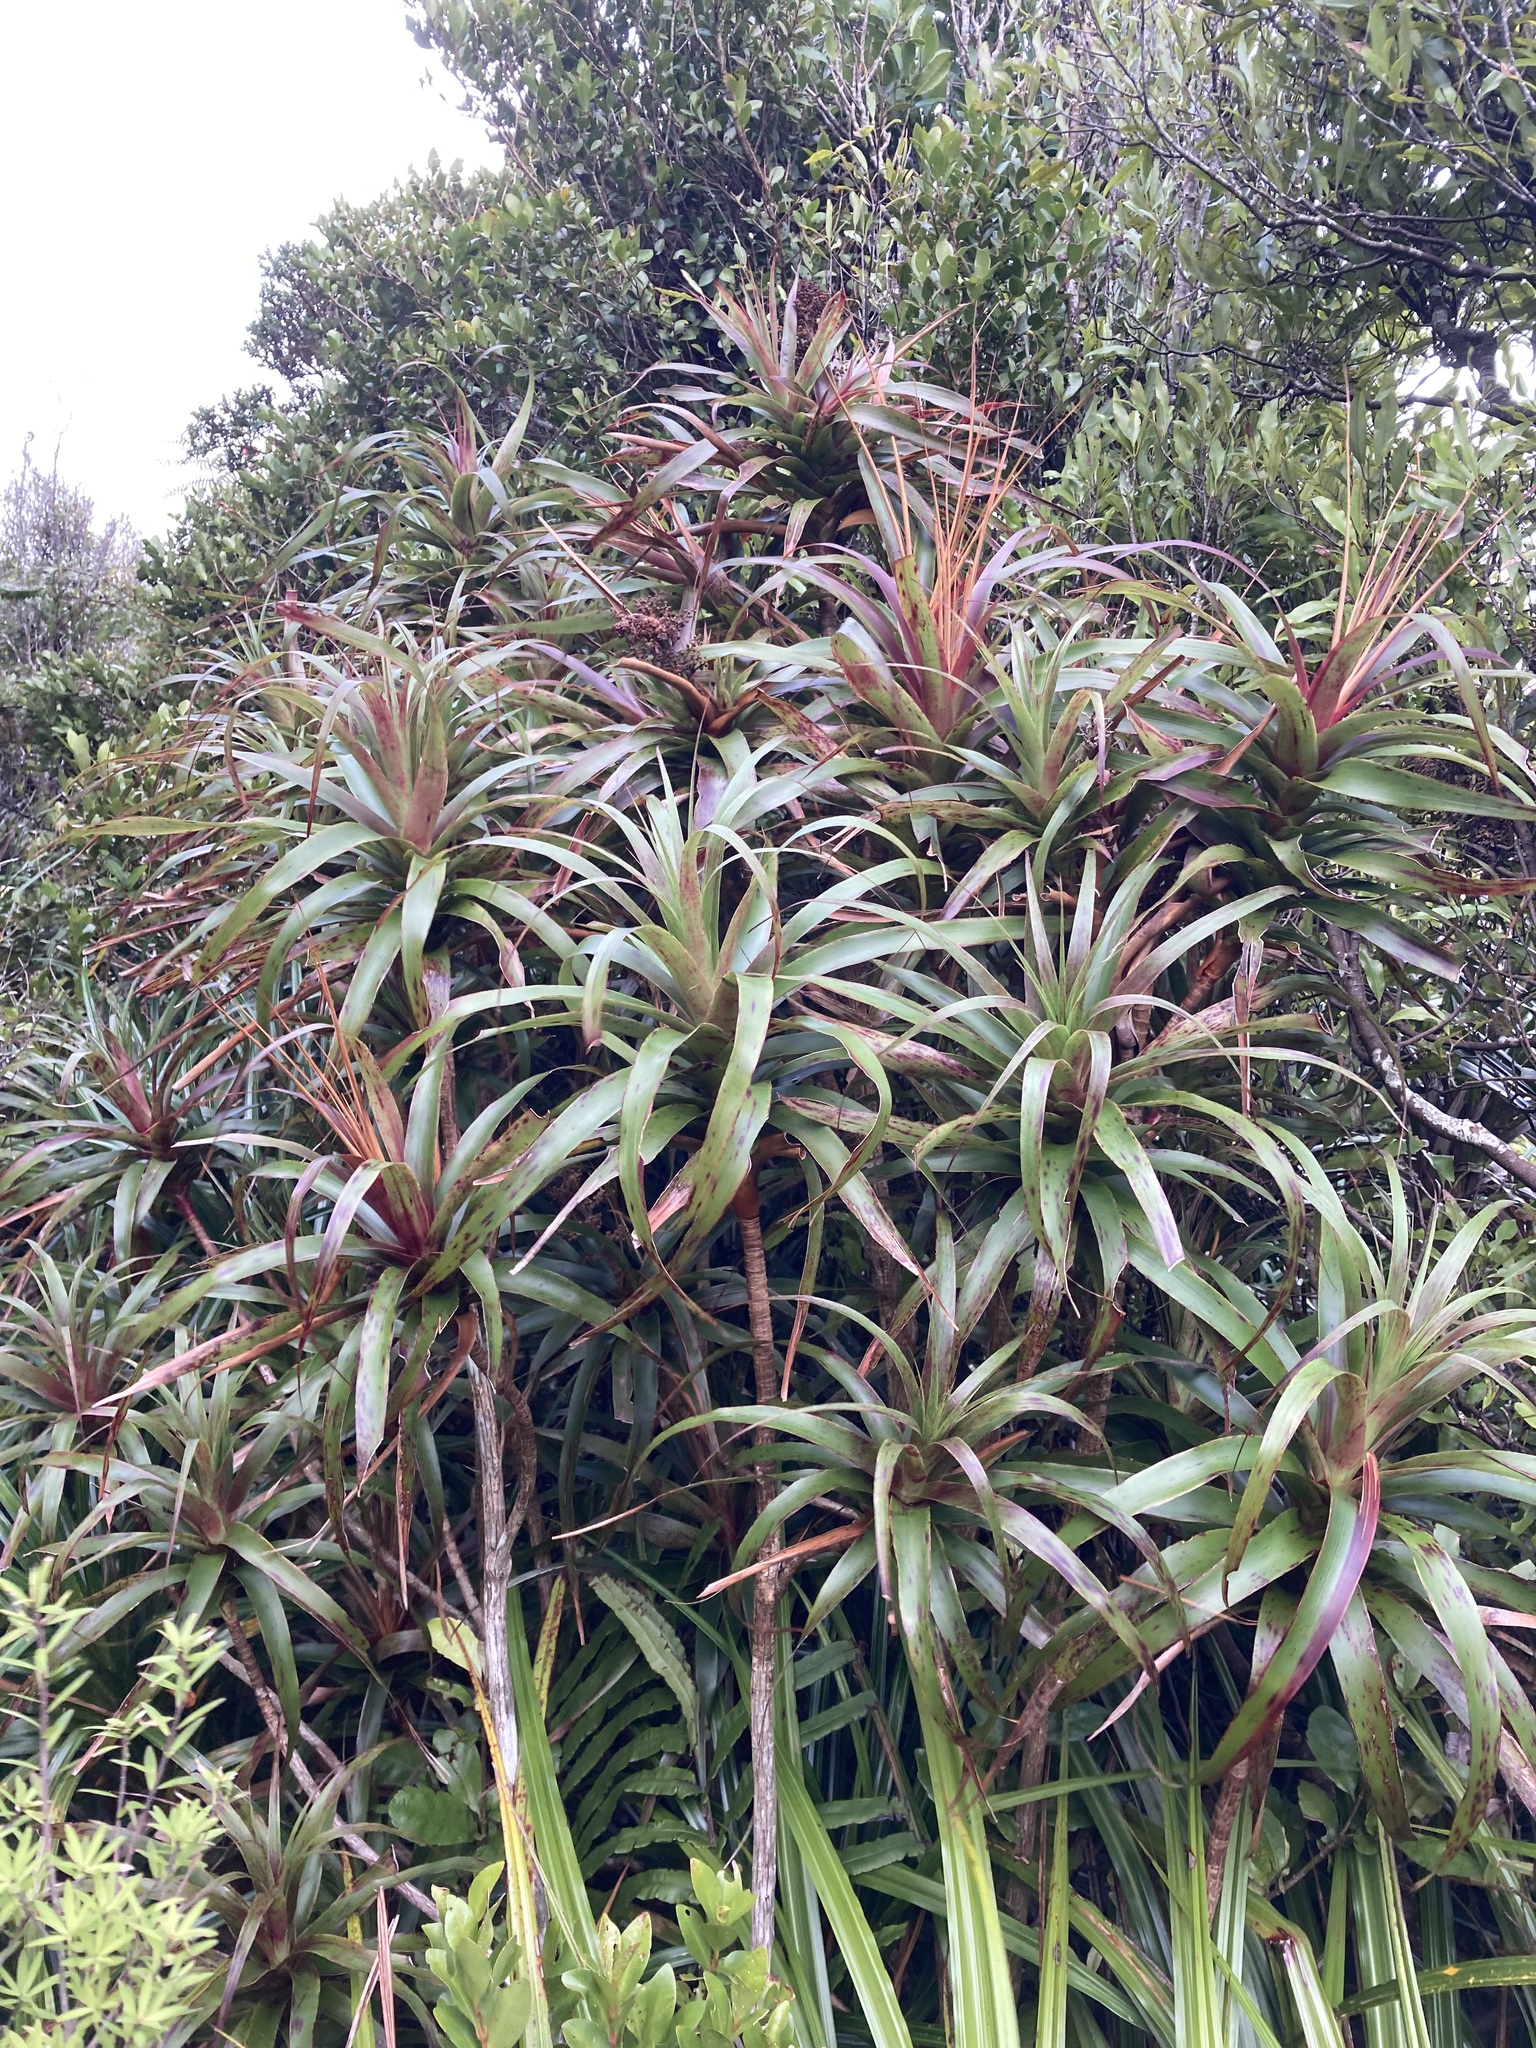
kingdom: Plantae
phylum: Tracheophyta
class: Magnoliopsida
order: Ericales
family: Ericaceae
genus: Dracophyllum
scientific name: Dracophyllum traversii
